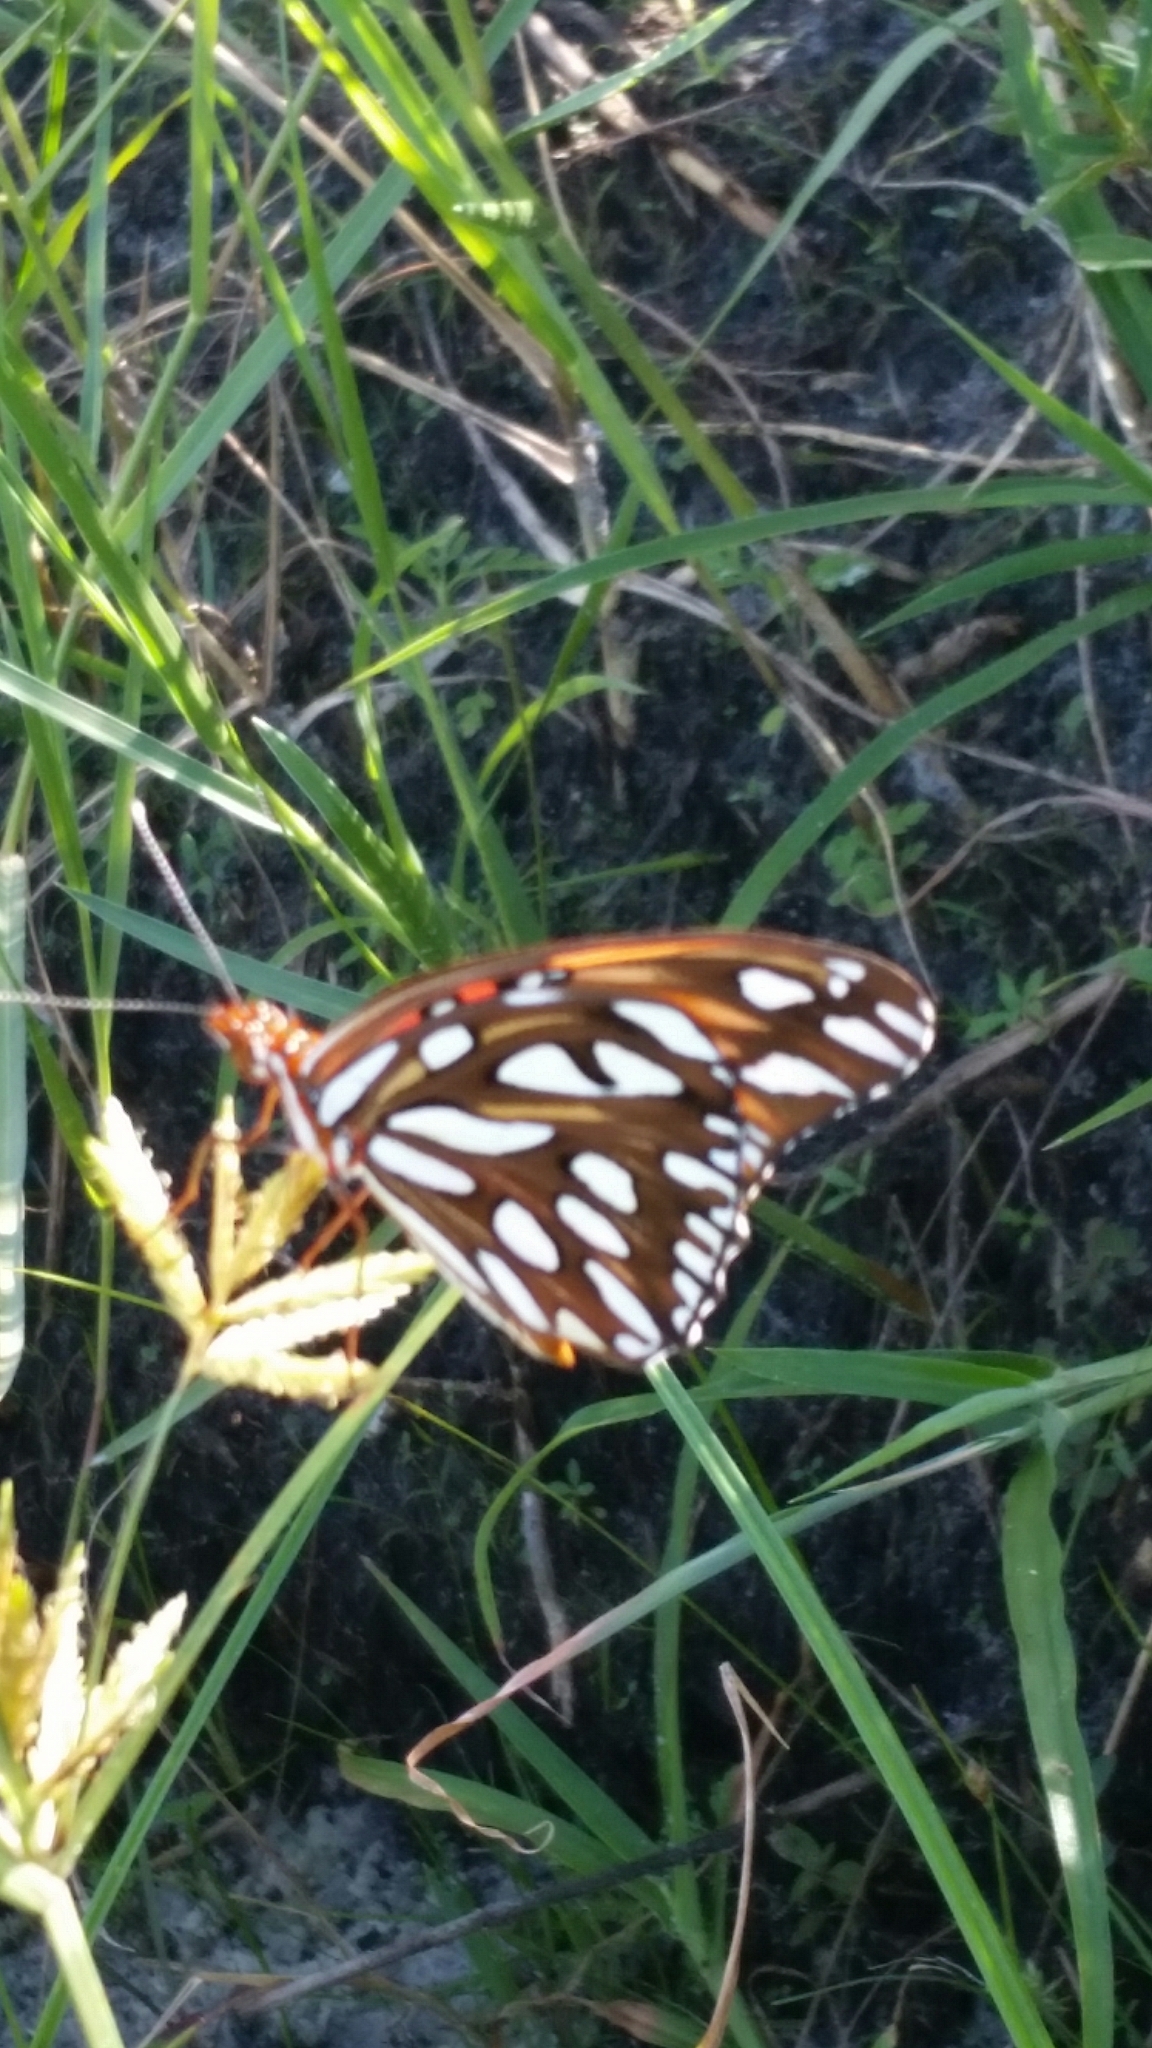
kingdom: Animalia
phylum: Arthropoda
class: Insecta
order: Lepidoptera
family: Nymphalidae
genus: Dione
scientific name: Dione vanillae
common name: Gulf fritillary
